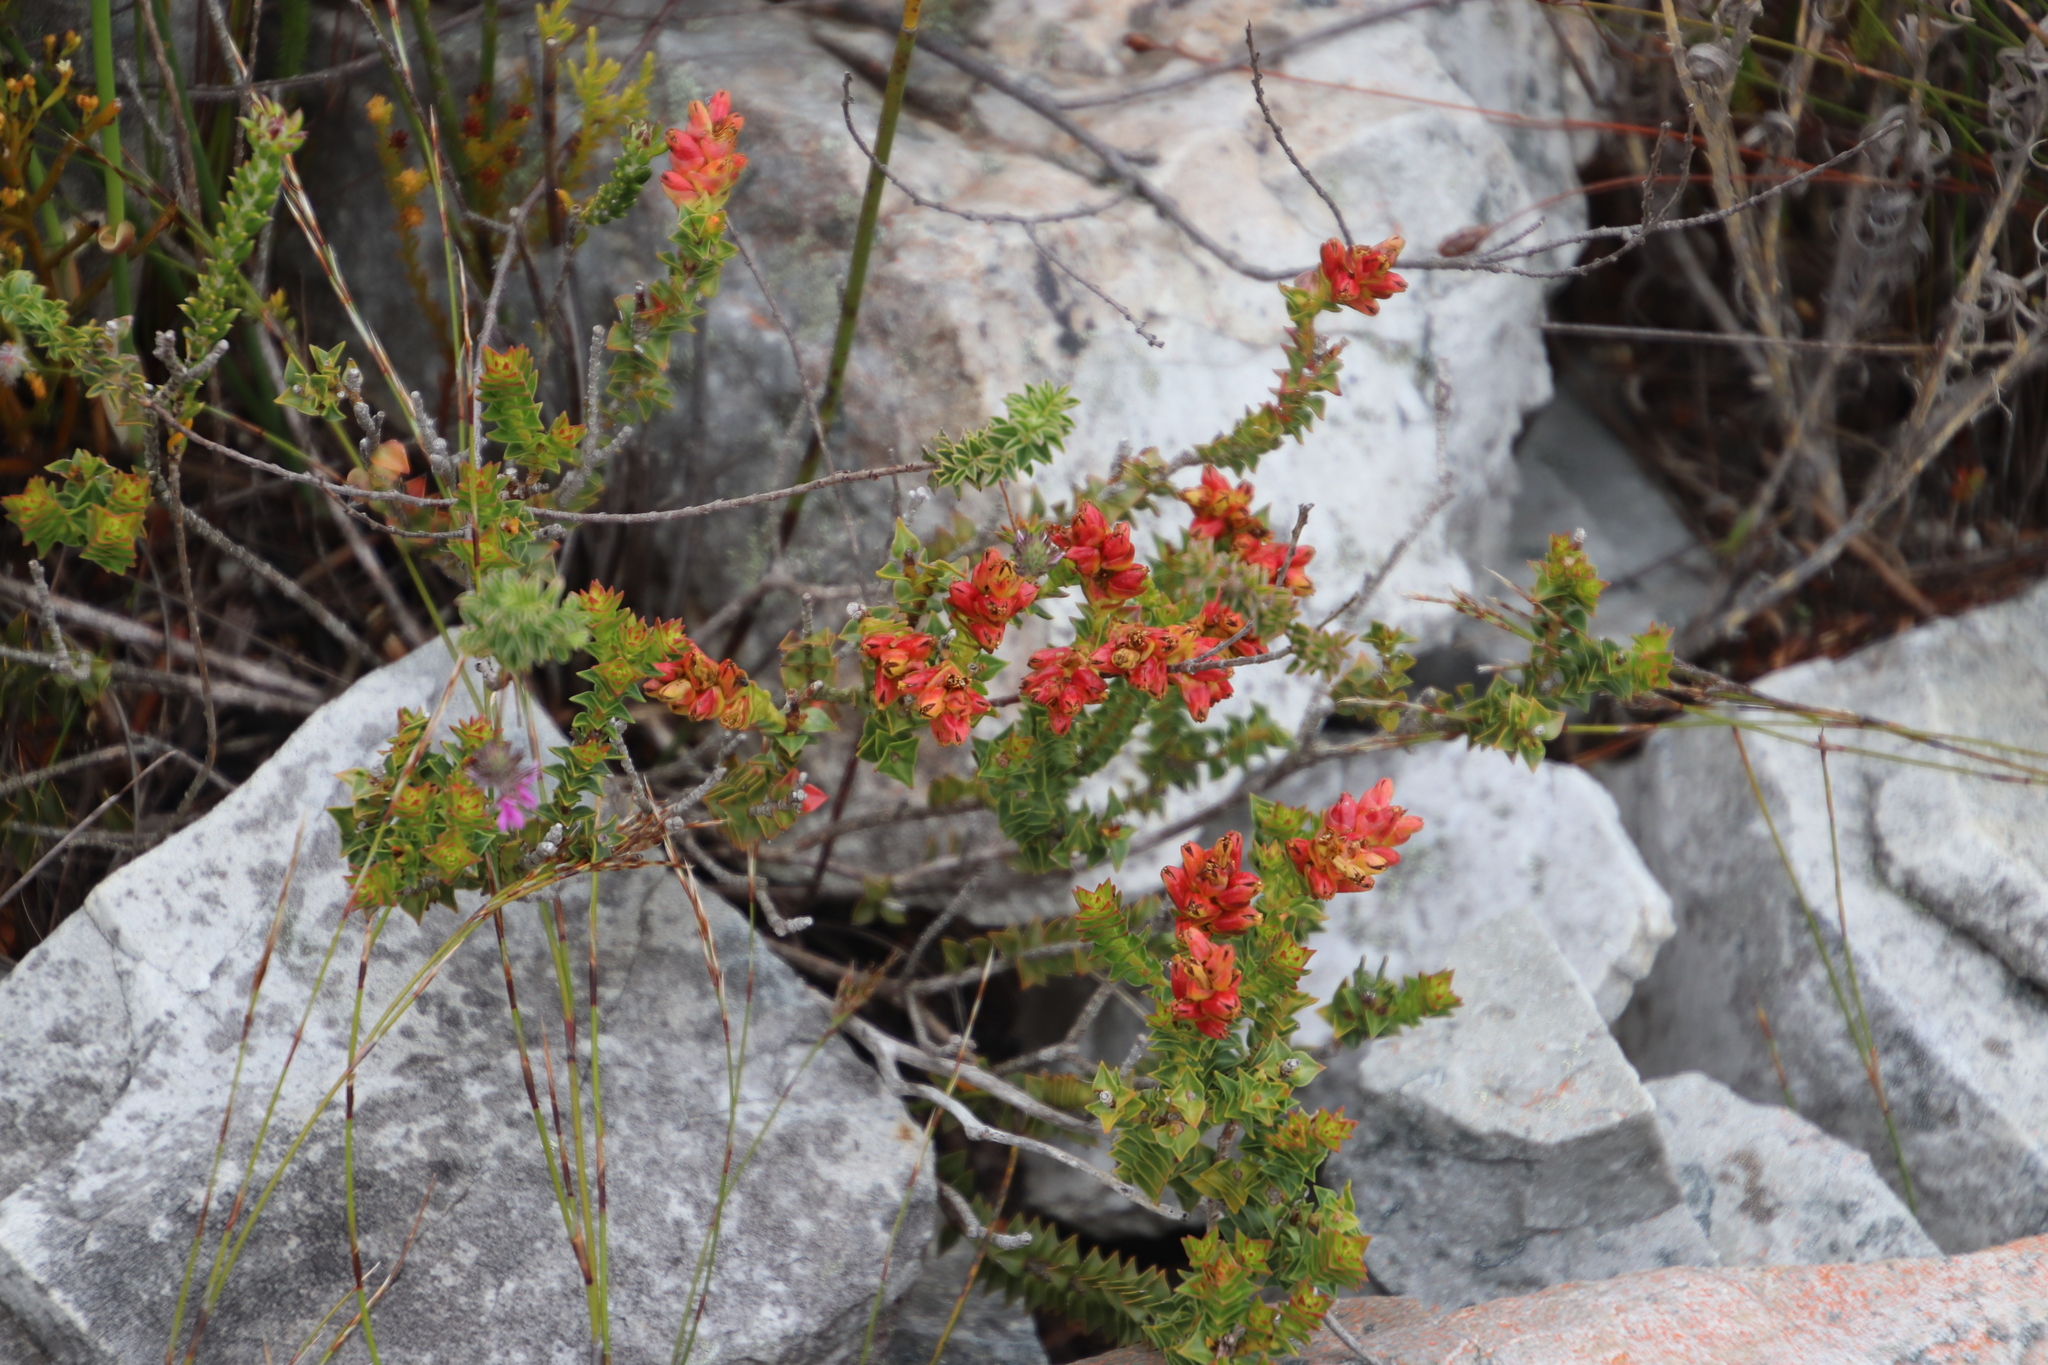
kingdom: Plantae
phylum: Tracheophyta
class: Magnoliopsida
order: Myrtales
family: Penaeaceae
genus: Penaea
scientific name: Penaea mucronata
